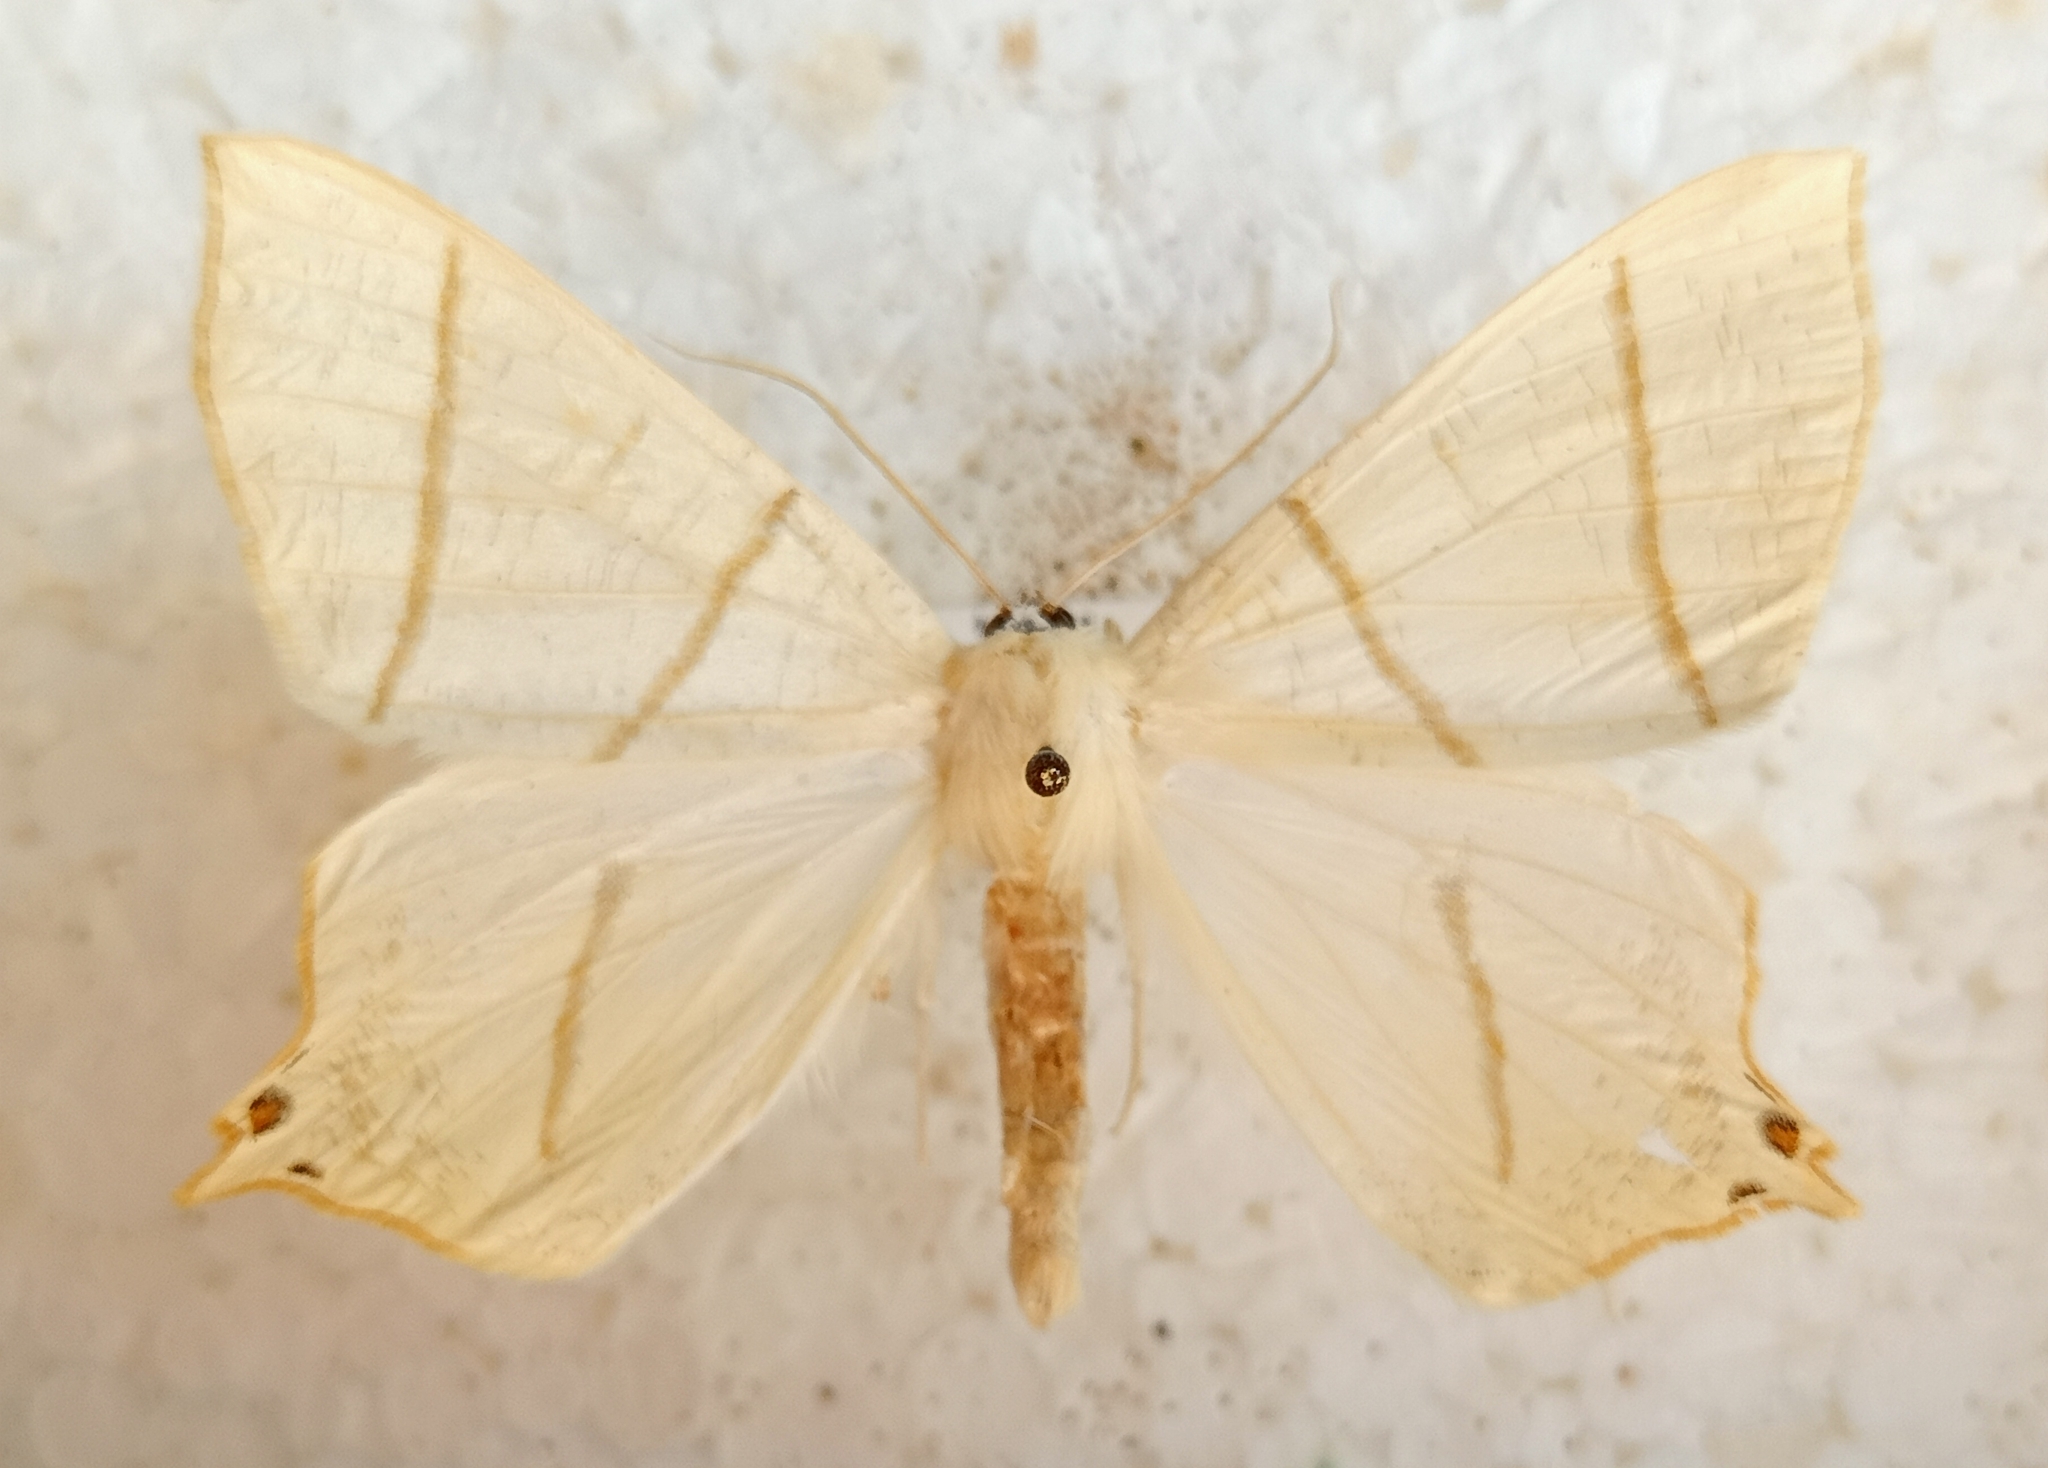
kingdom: Animalia
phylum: Arthropoda
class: Insecta
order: Lepidoptera
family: Geometridae
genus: Ourapteryx
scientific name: Ourapteryx sambucaria
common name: Swallow-tailed moth
